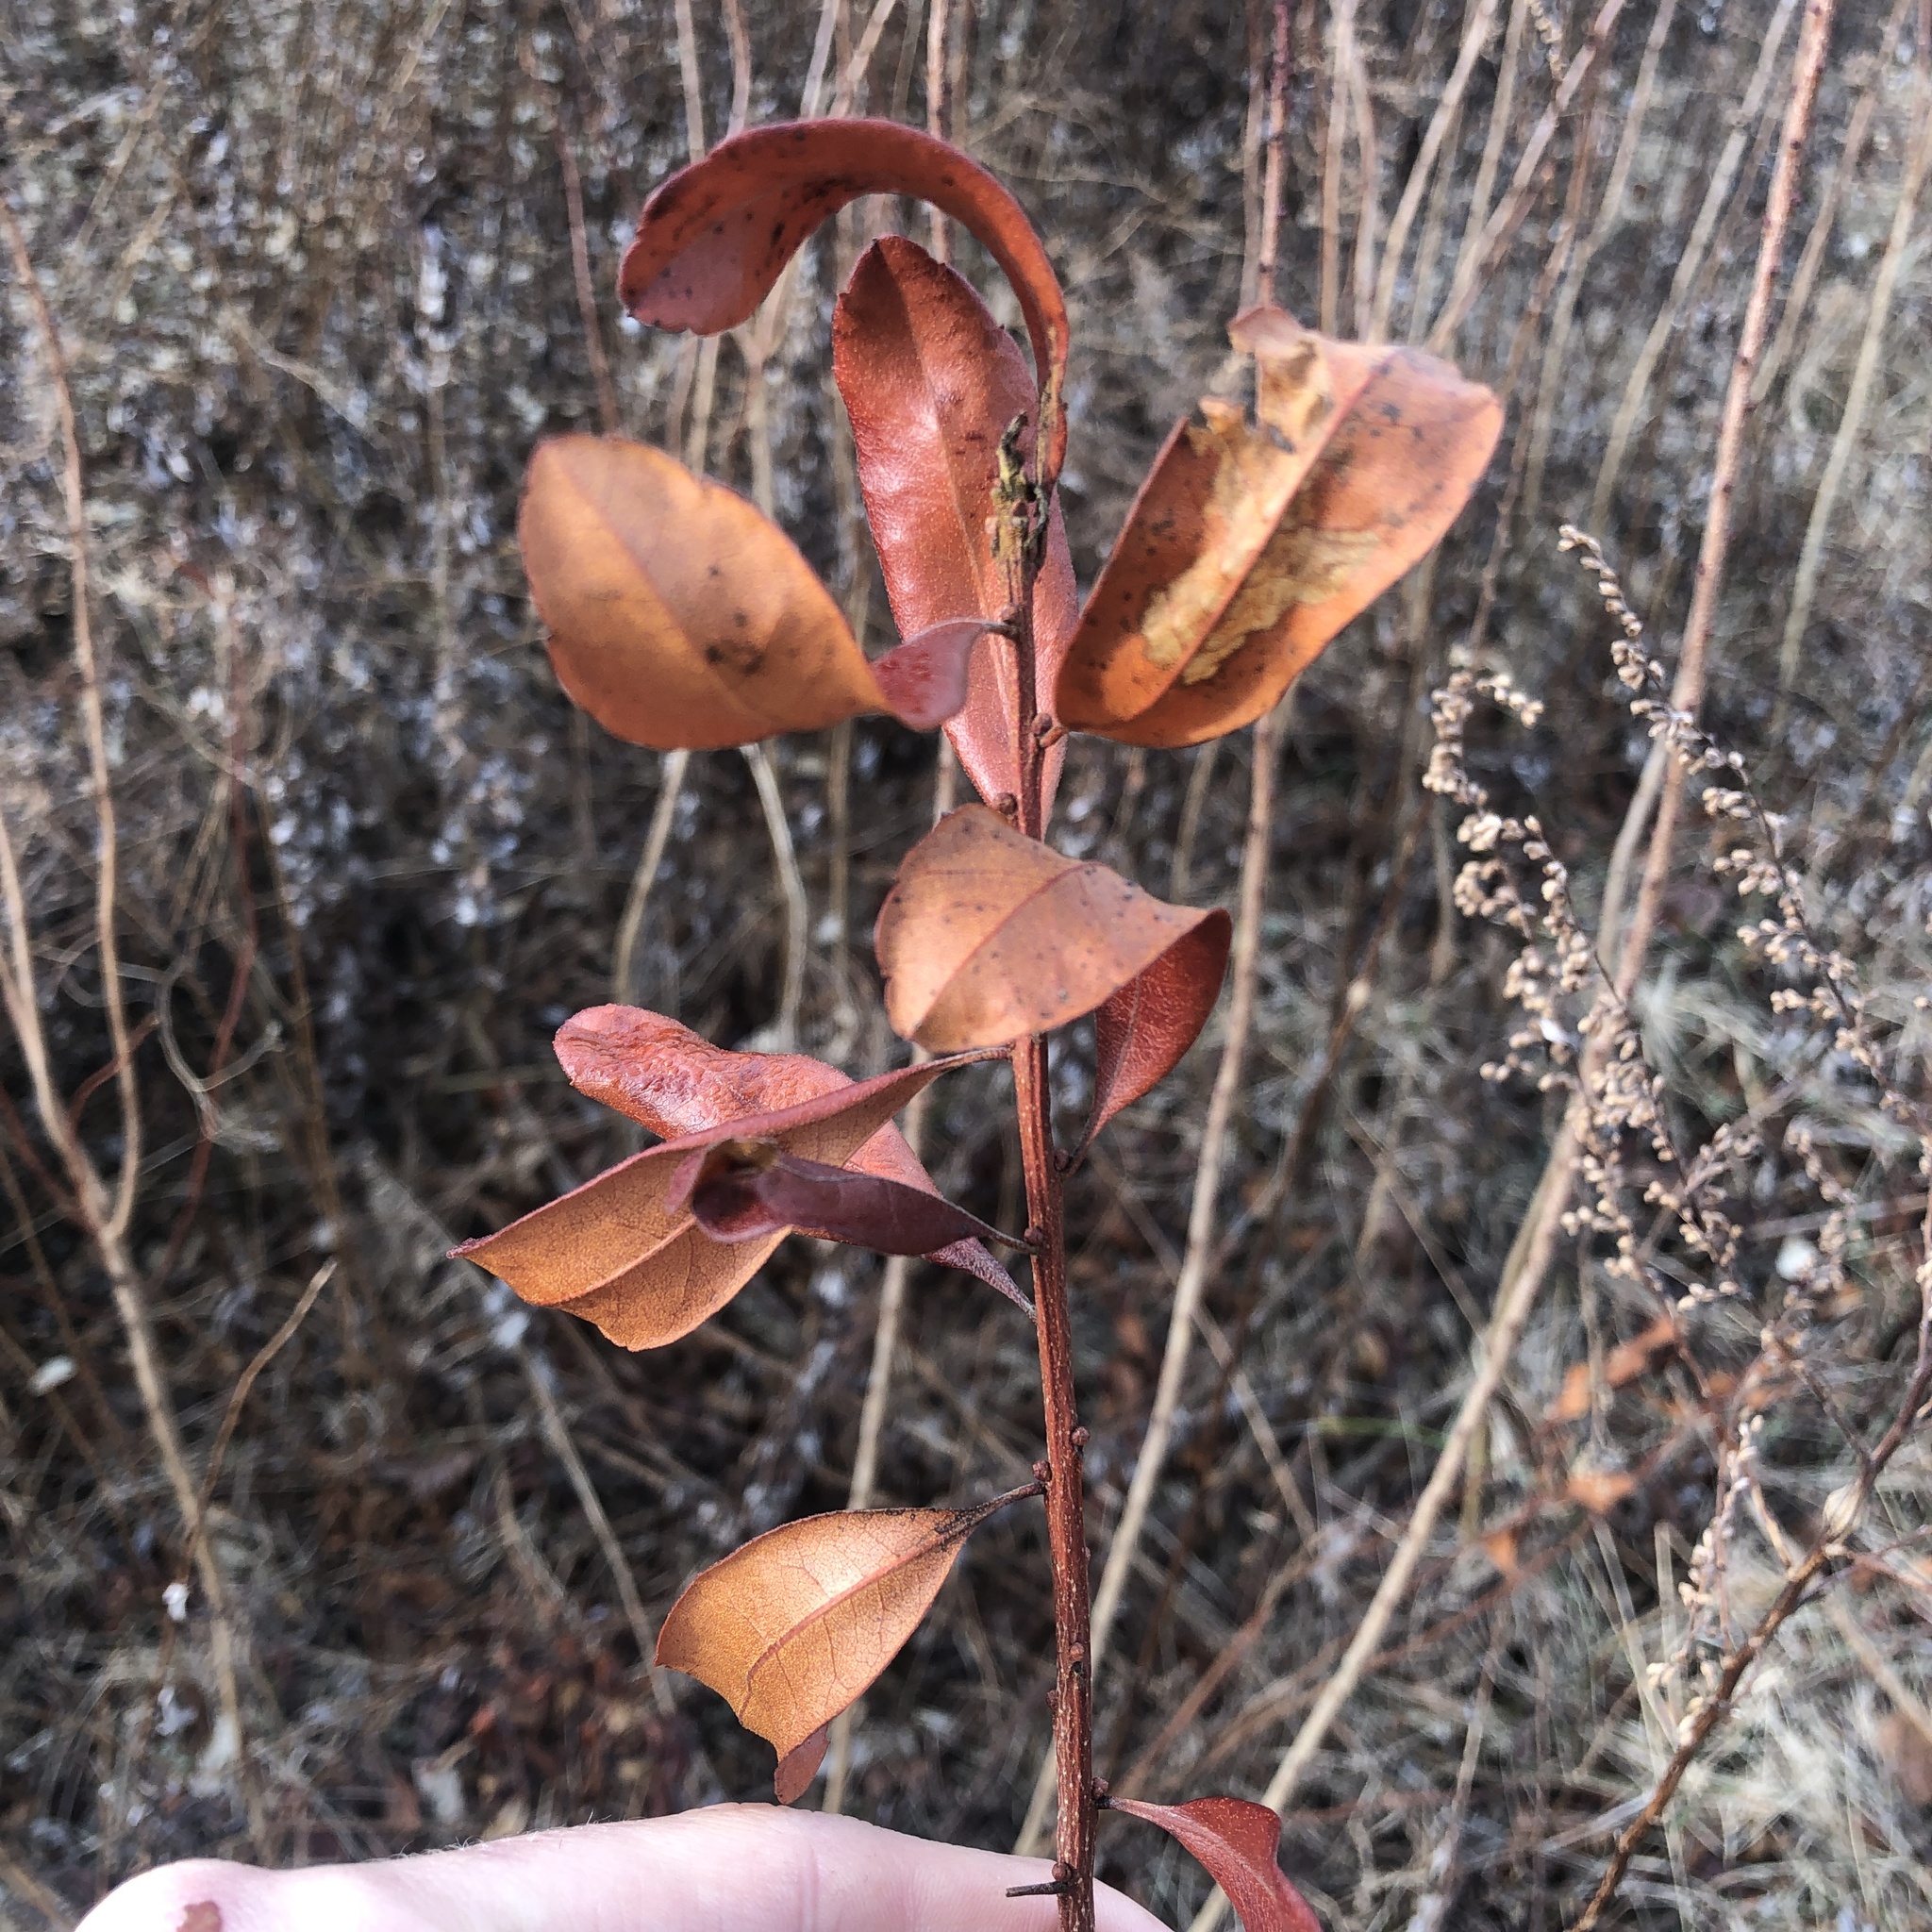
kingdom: Plantae
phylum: Tracheophyta
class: Magnoliopsida
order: Fagales
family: Myricaceae
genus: Morella
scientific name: Morella pensylvanica
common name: Northern bayberry
